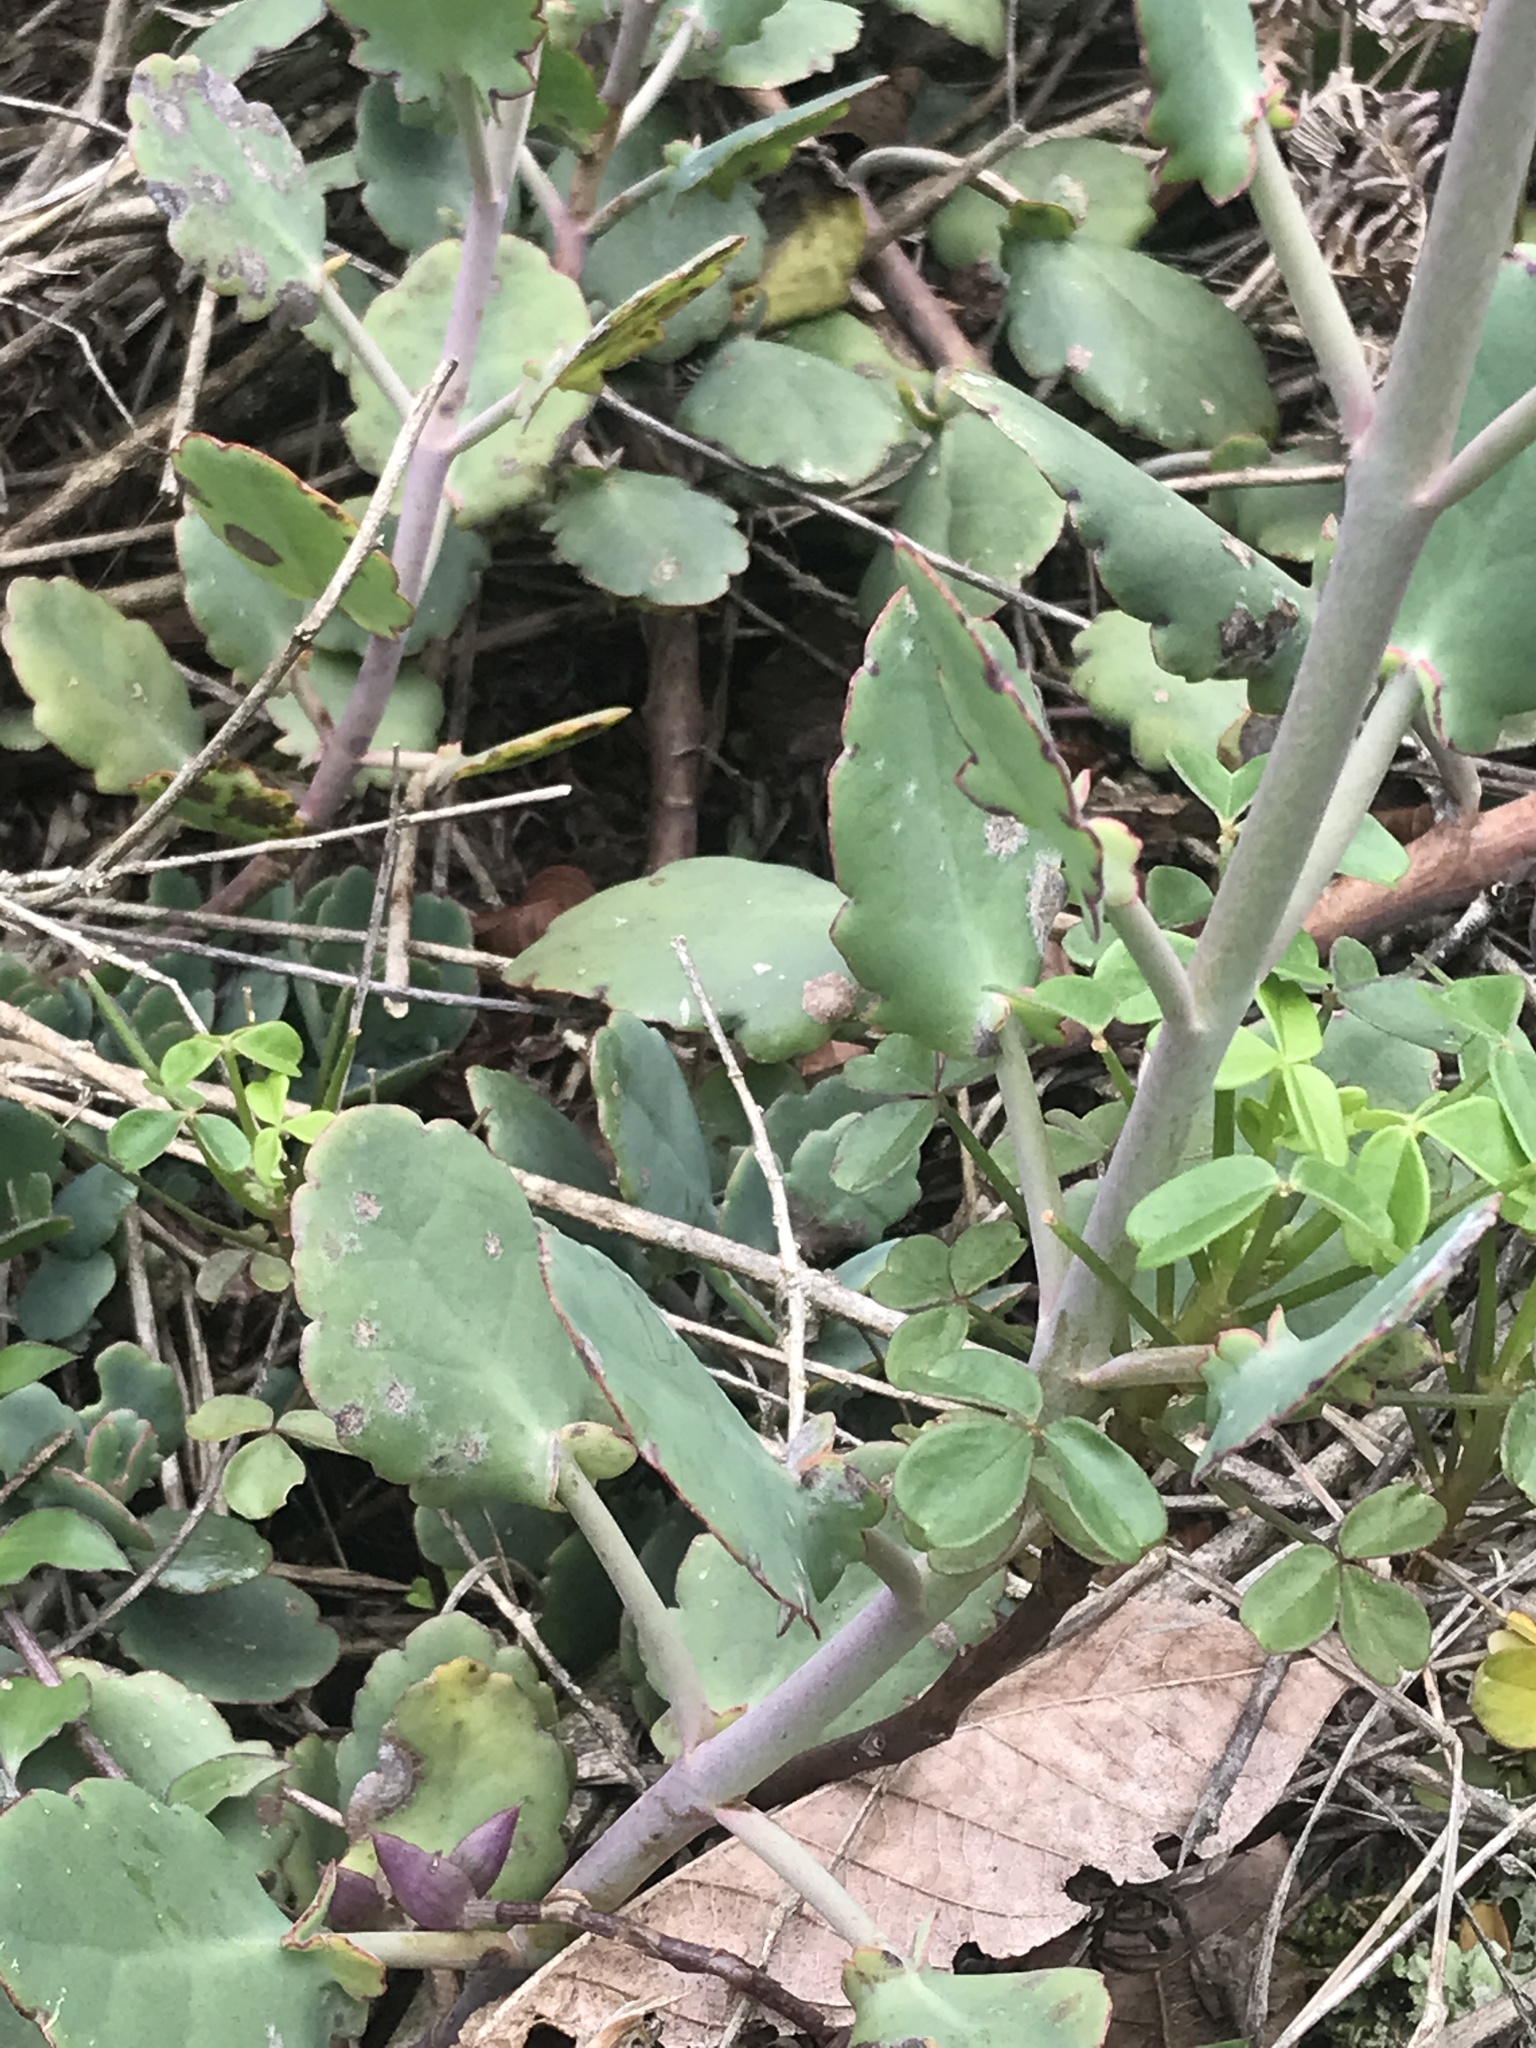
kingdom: Plantae
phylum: Tracheophyta
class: Magnoliopsida
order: Saxifragales
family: Crassulaceae
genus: Kalanchoe
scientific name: Kalanchoe laxiflora
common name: Milky widow's thrill
